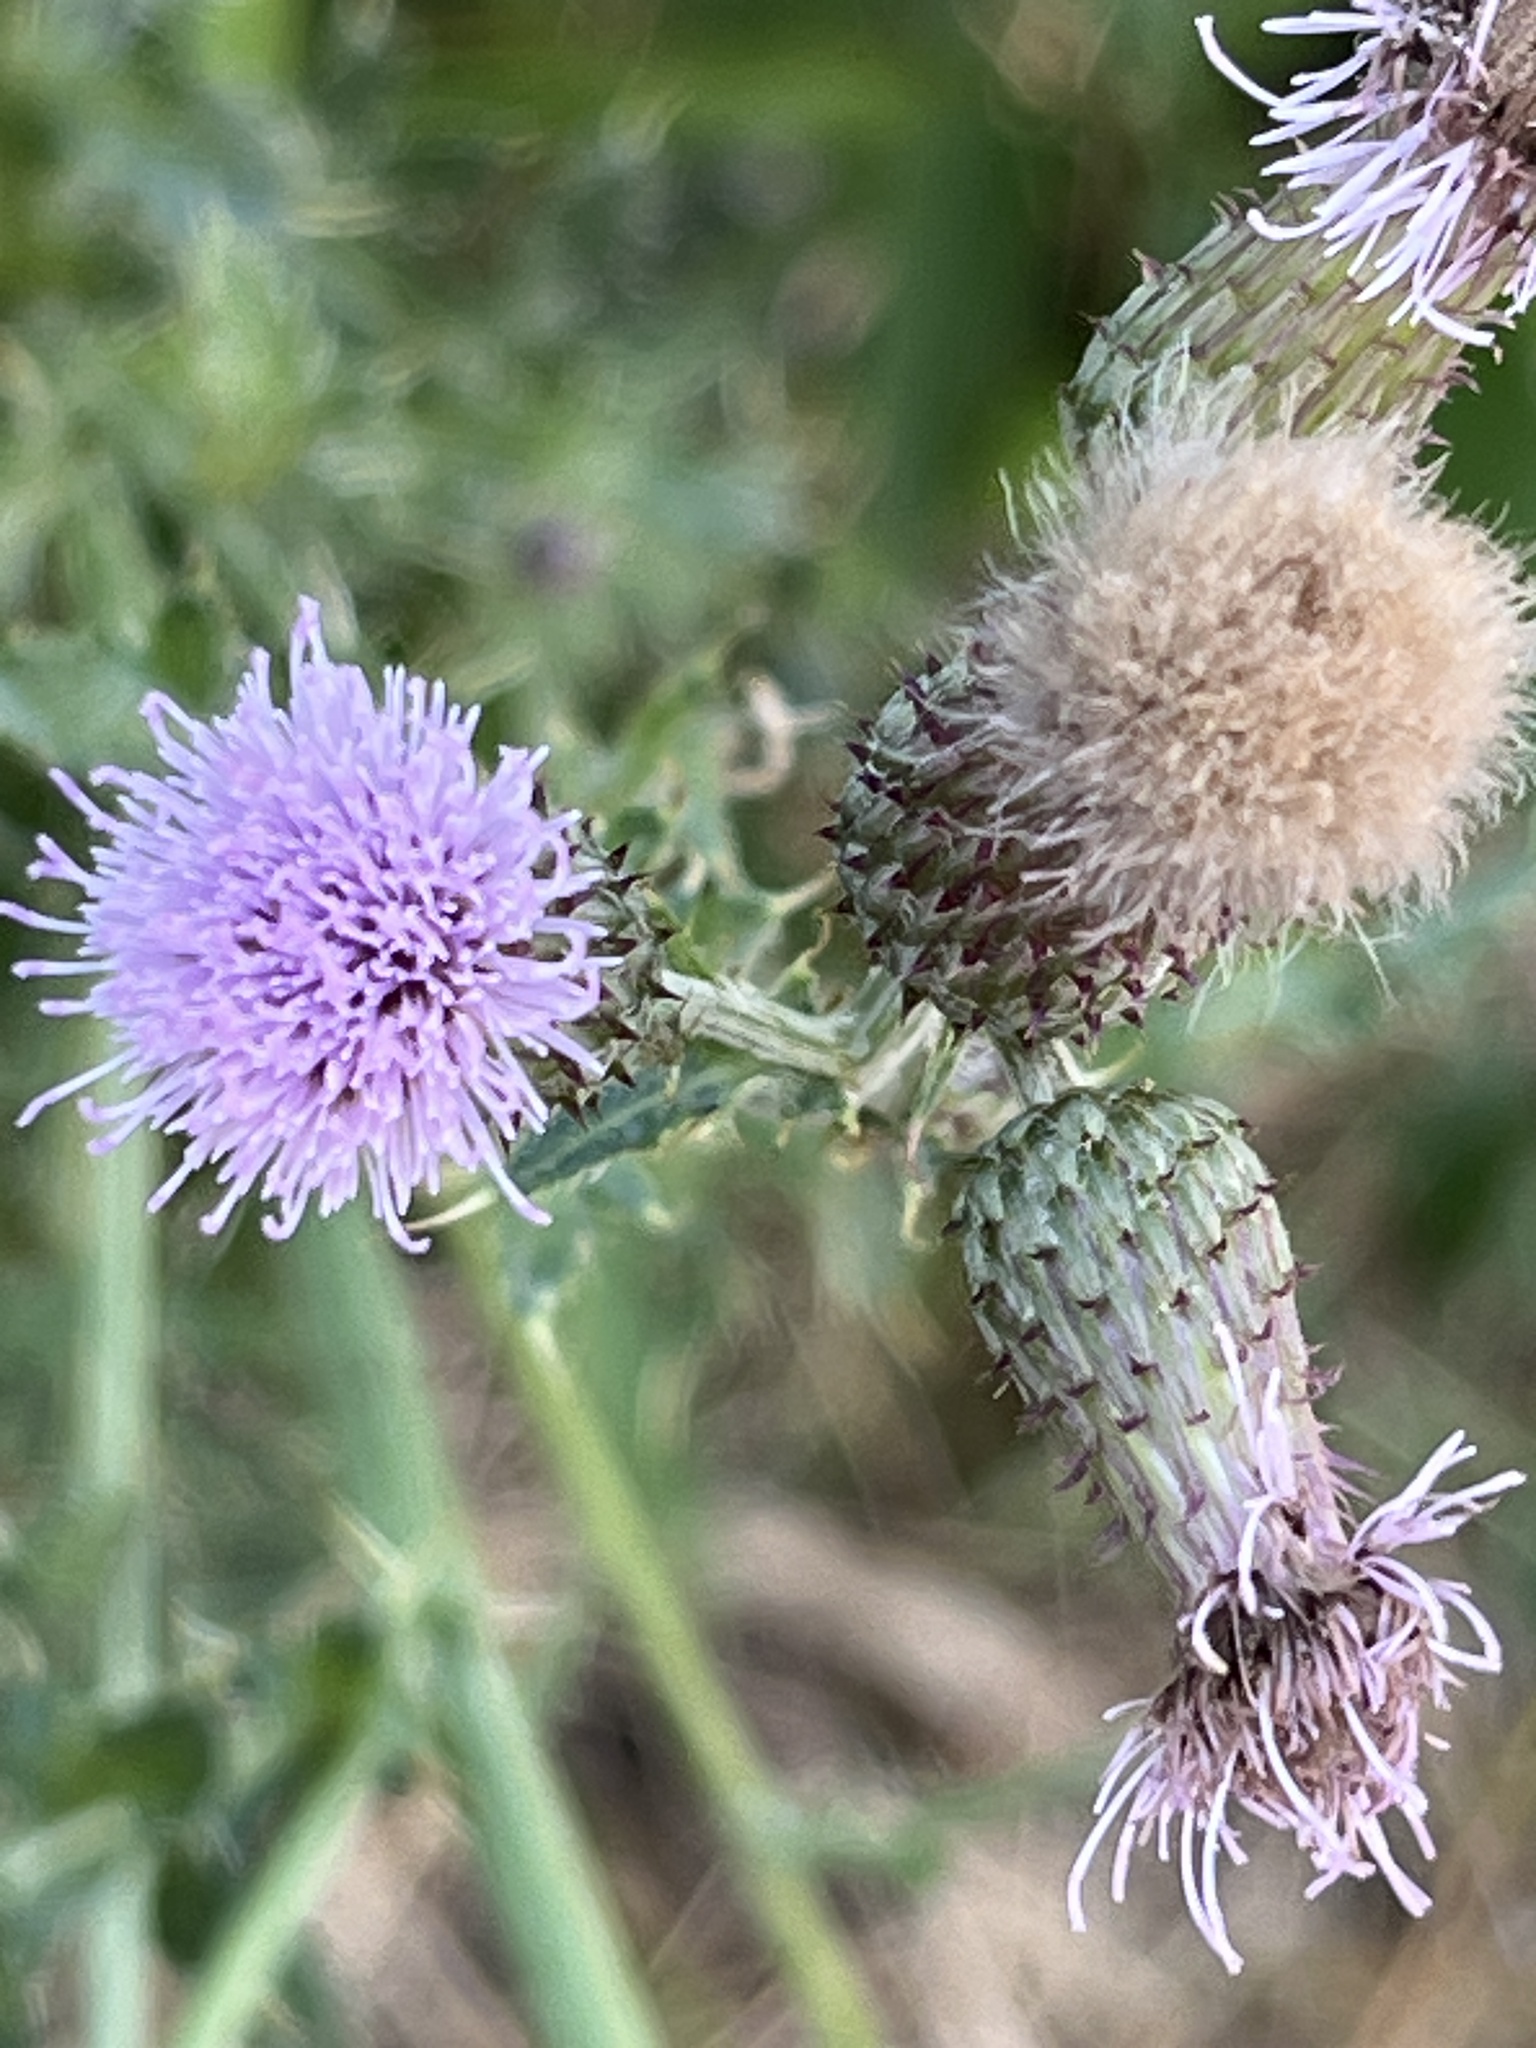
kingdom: Plantae
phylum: Tracheophyta
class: Magnoliopsida
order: Asterales
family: Asteraceae
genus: Cirsium
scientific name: Cirsium arvense
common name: Creeping thistle
